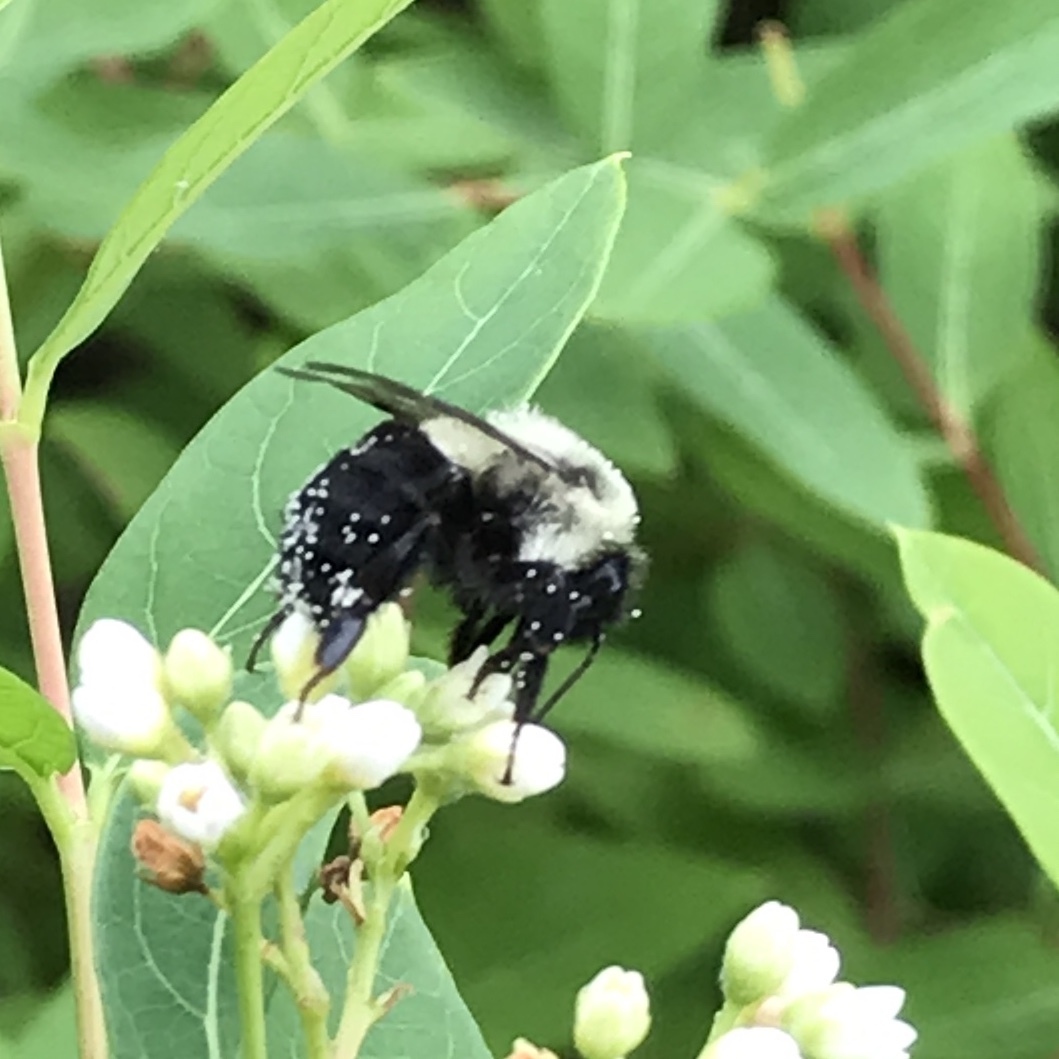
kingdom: Animalia
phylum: Arthropoda
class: Insecta
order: Hymenoptera
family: Apidae
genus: Bombus
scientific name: Bombus impatiens
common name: Common eastern bumble bee
